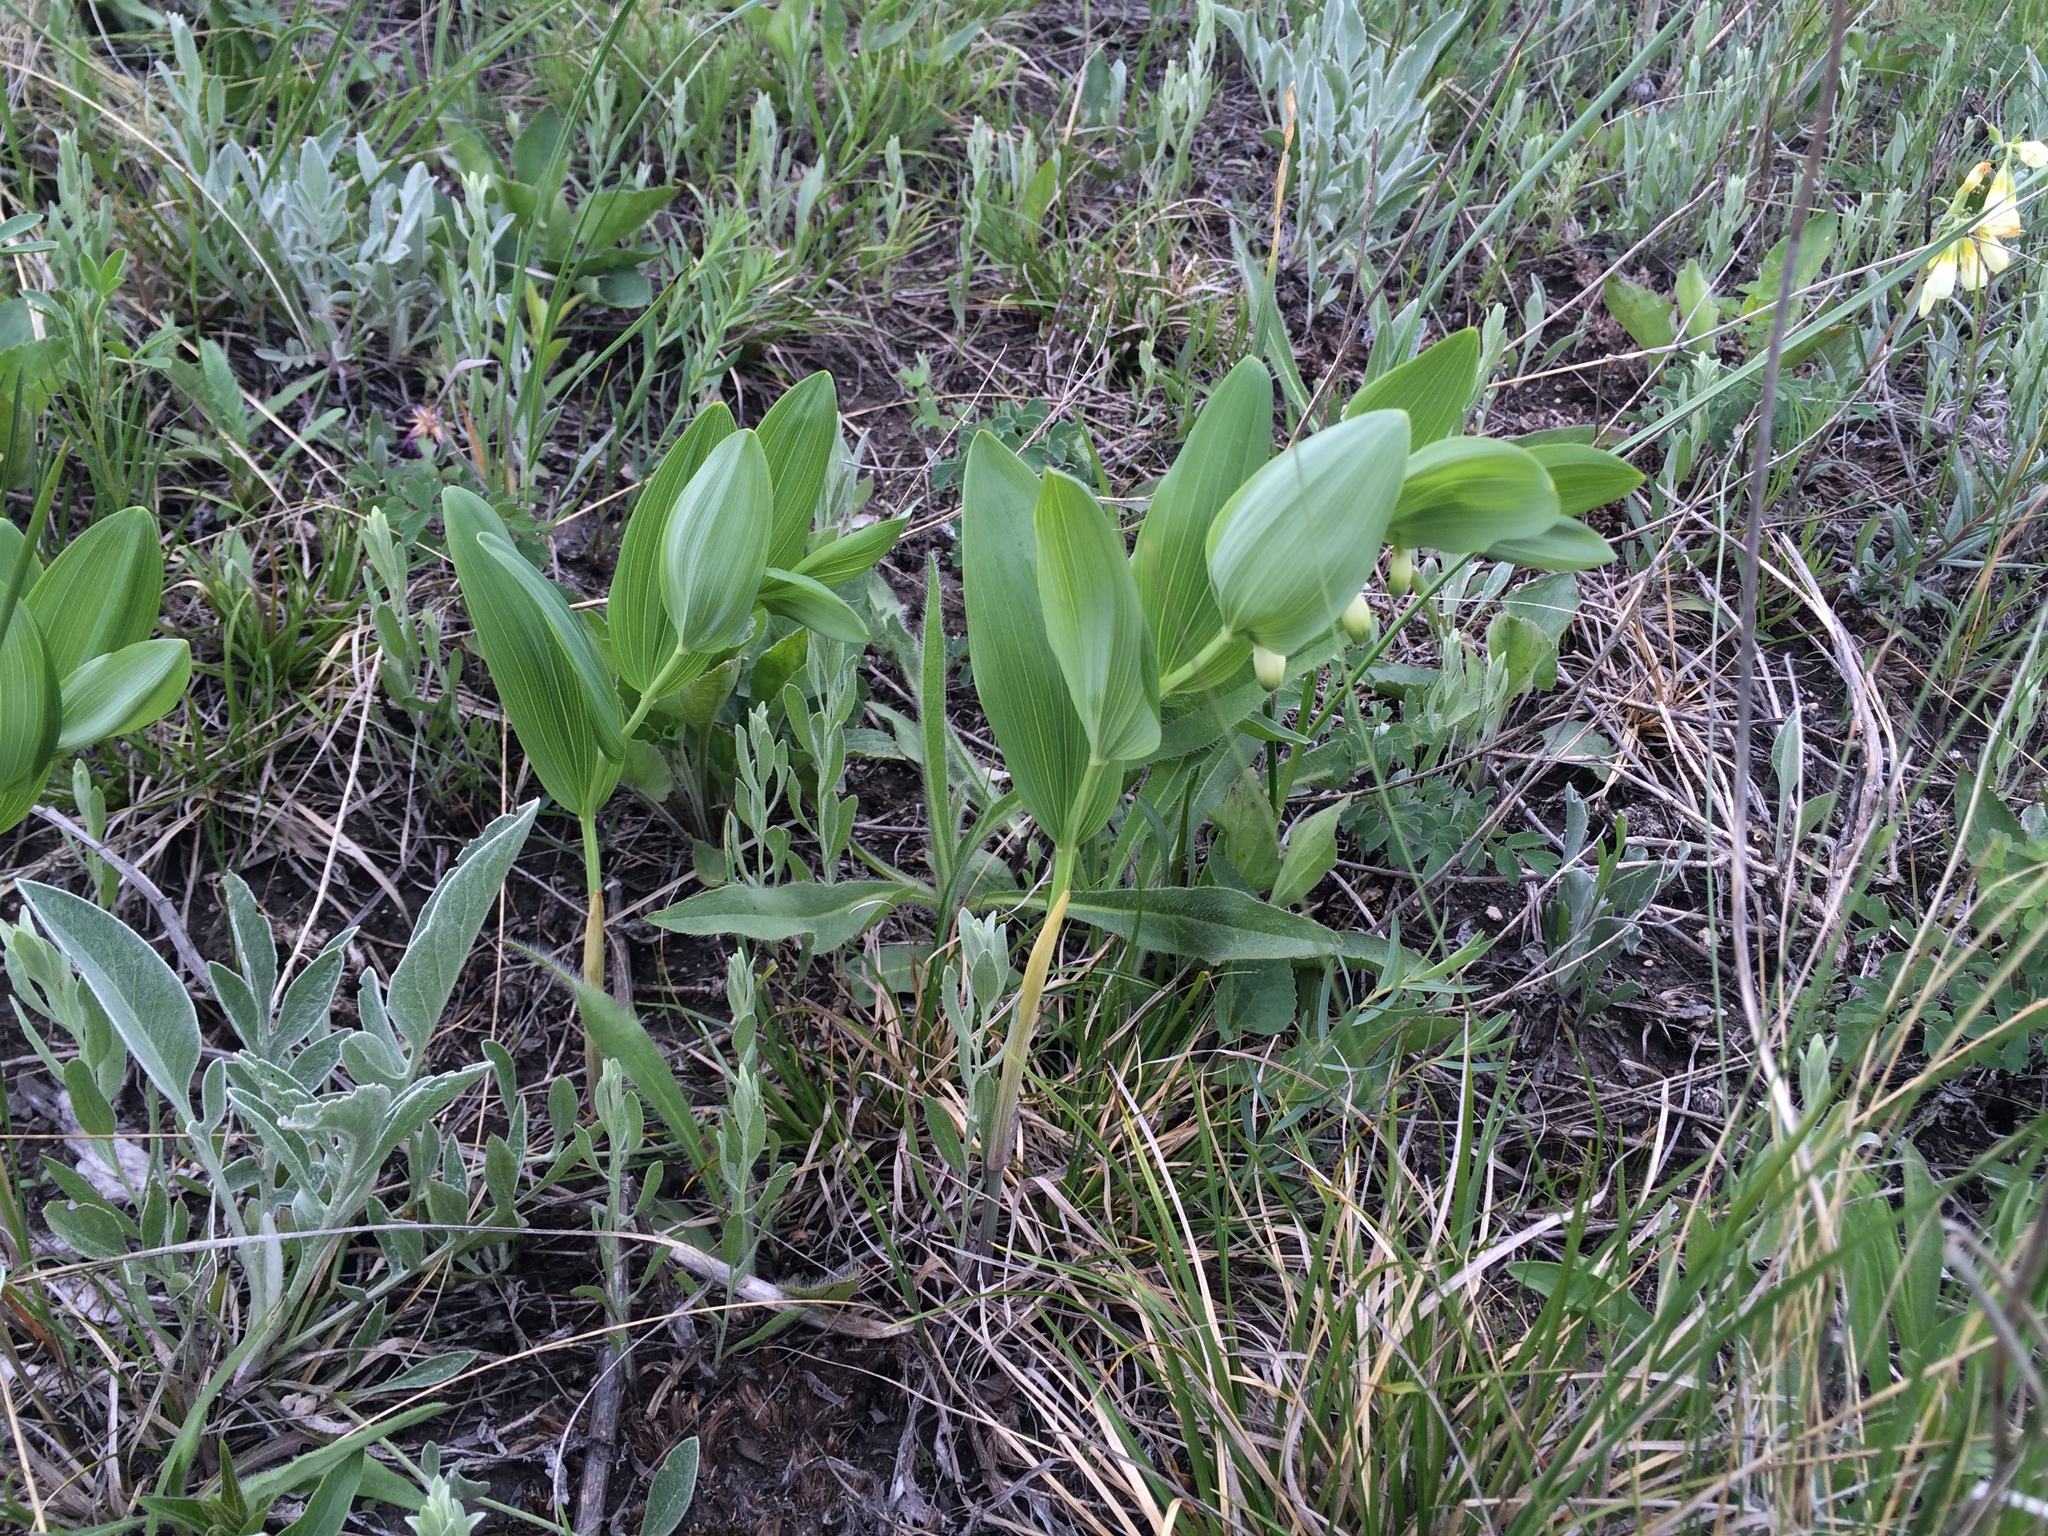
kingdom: Plantae
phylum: Tracheophyta
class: Liliopsida
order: Asparagales
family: Asparagaceae
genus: Polygonatum
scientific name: Polygonatum odoratum
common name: Angular solomon's-seal
